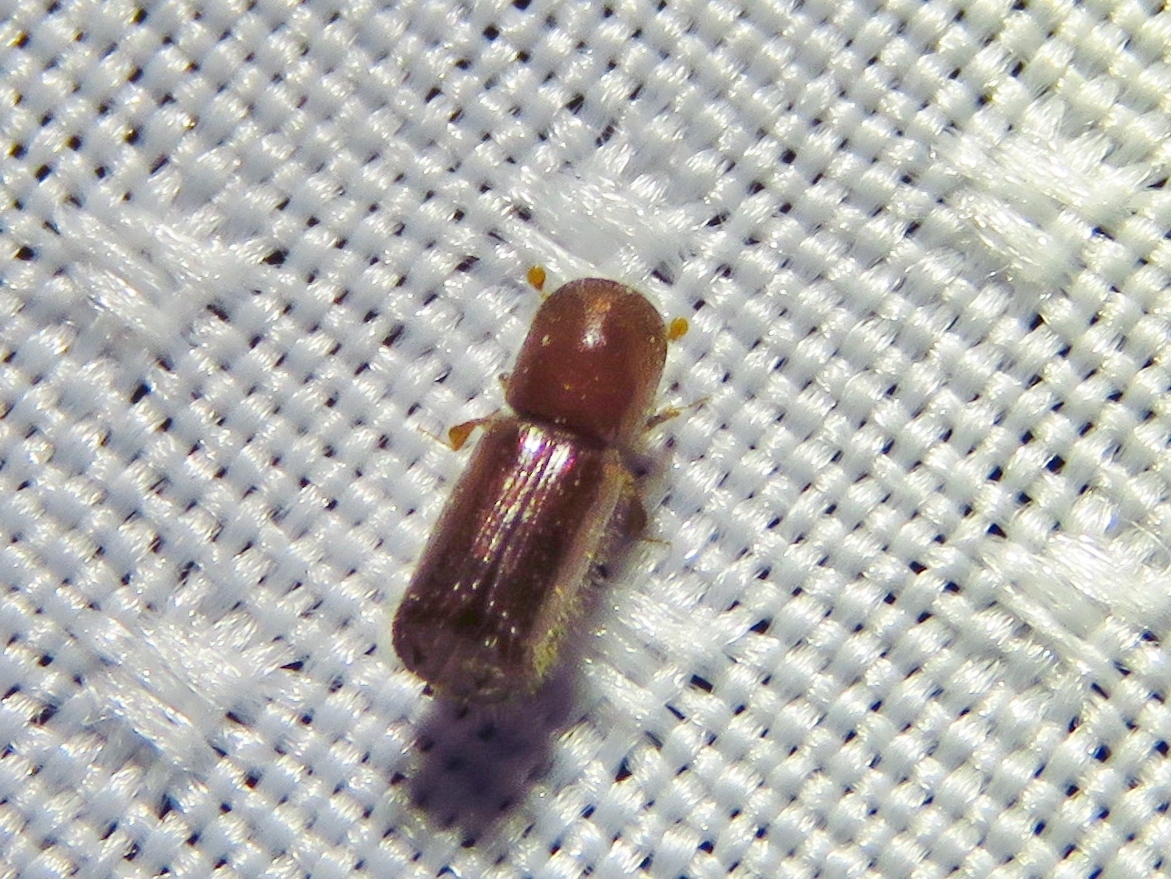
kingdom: Animalia
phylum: Arthropoda
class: Insecta
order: Coleoptera
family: Curculionidae
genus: Xyleborus
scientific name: Xyleborus celsus
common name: Weevil
